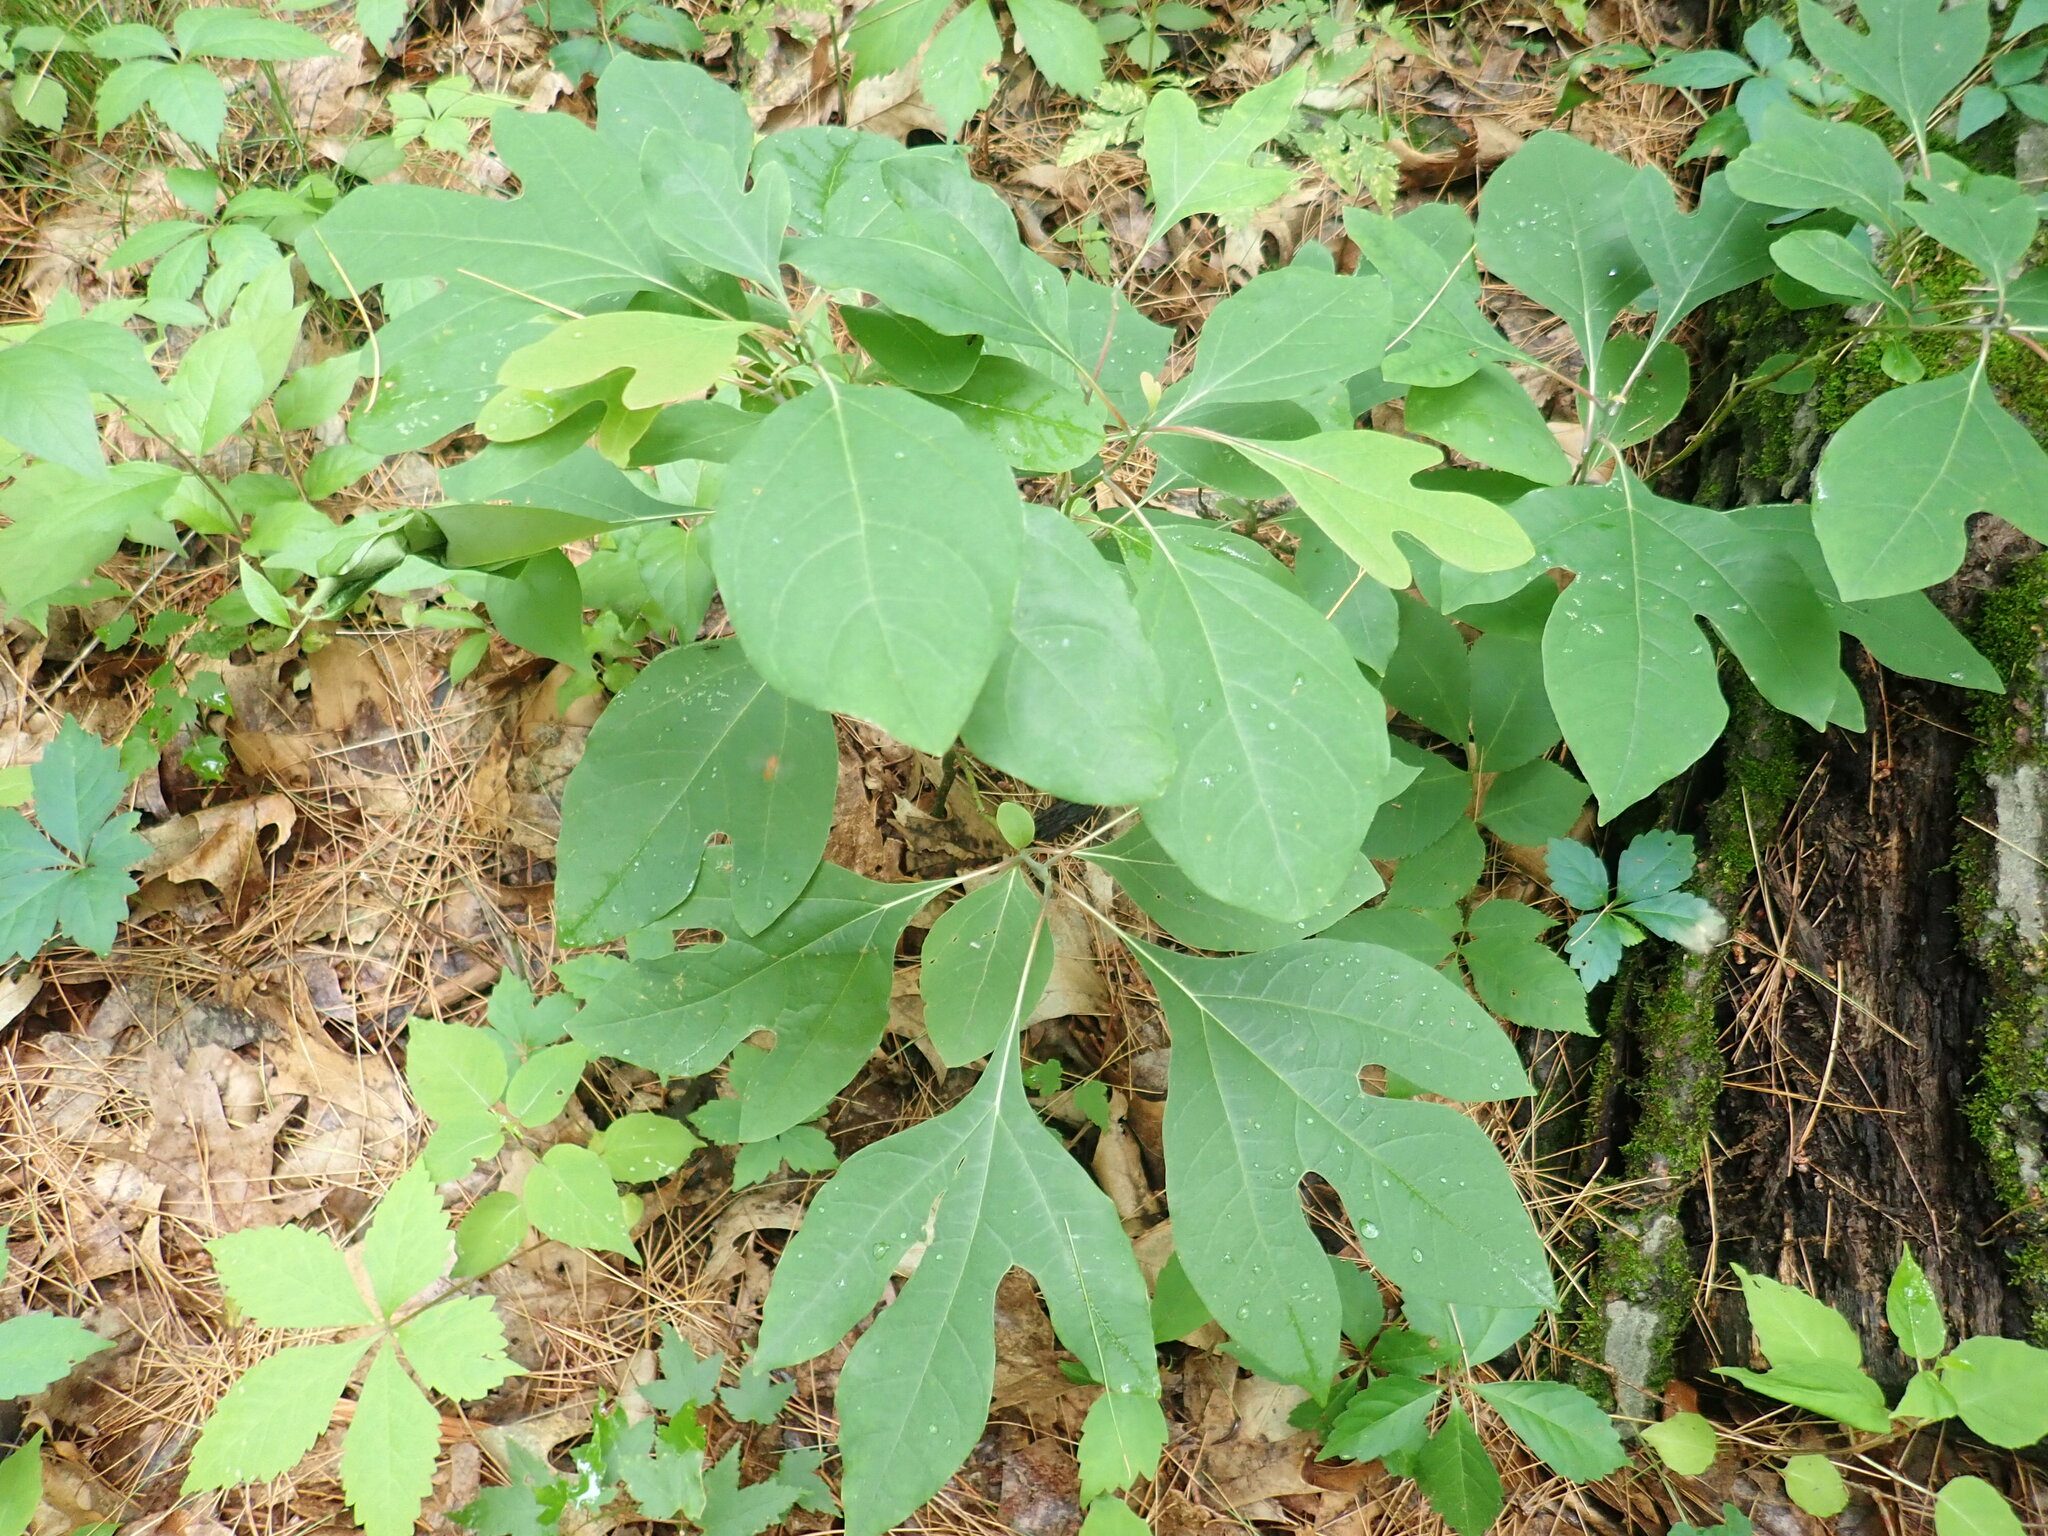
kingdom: Plantae
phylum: Tracheophyta
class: Magnoliopsida
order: Laurales
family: Lauraceae
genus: Sassafras
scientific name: Sassafras albidum
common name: Sassafras
